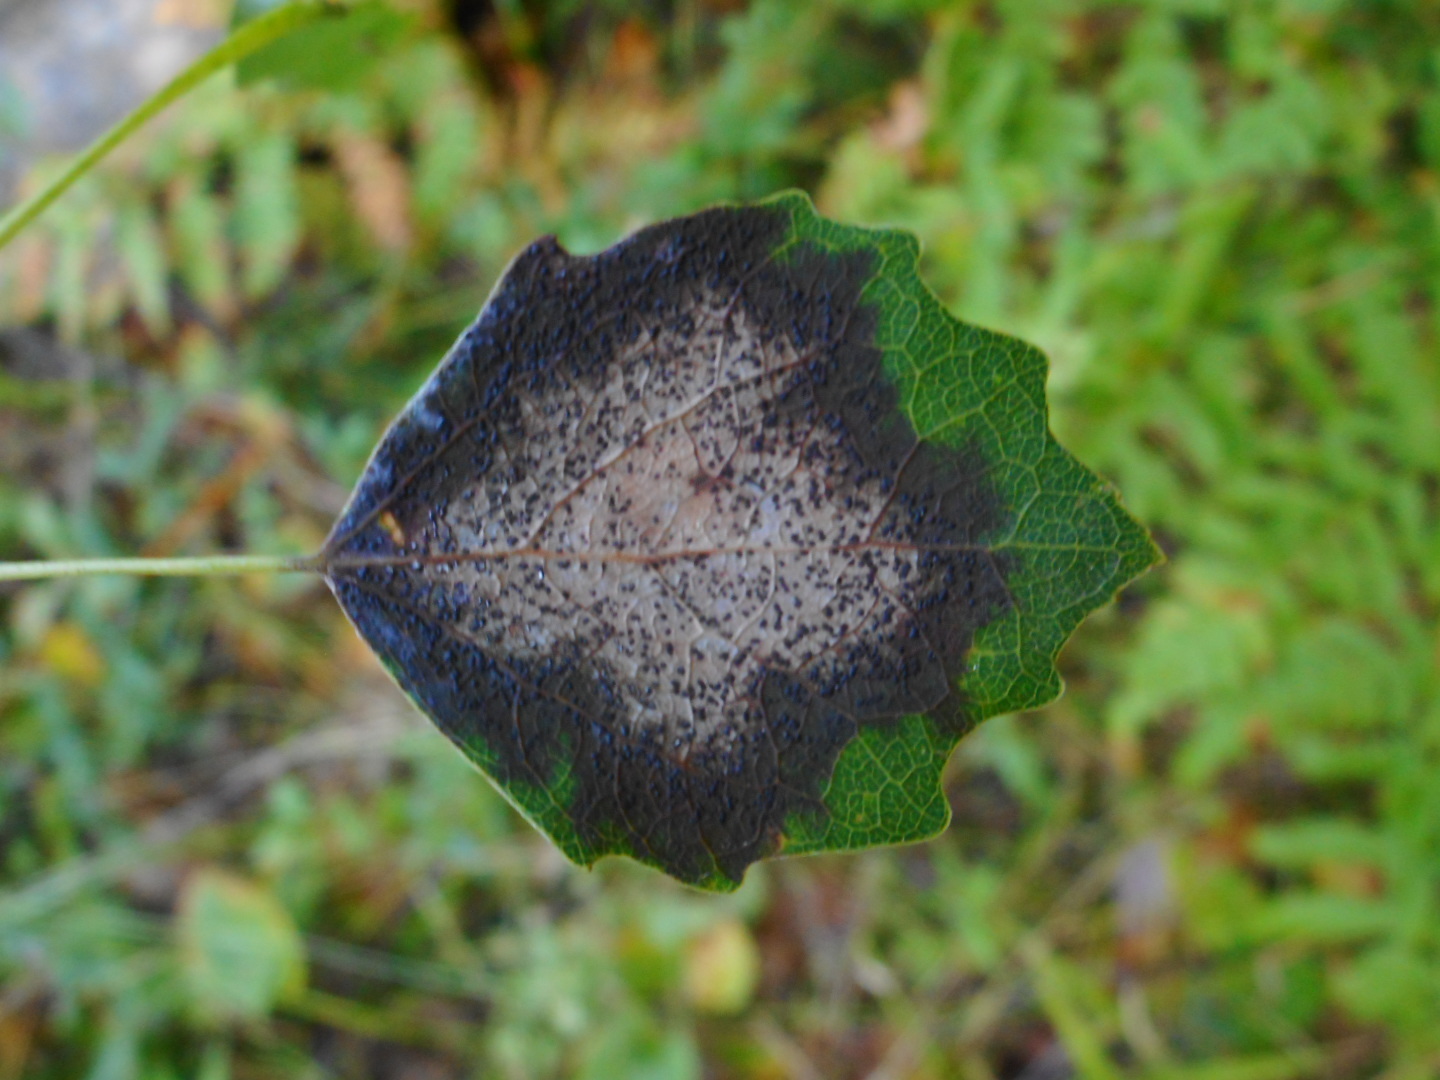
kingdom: Fungi
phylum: Ascomycota
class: Sordariomycetes
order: Diaporthales
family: Gnomoniaceae
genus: Titaeosporina
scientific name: Titaeosporina tremulae
